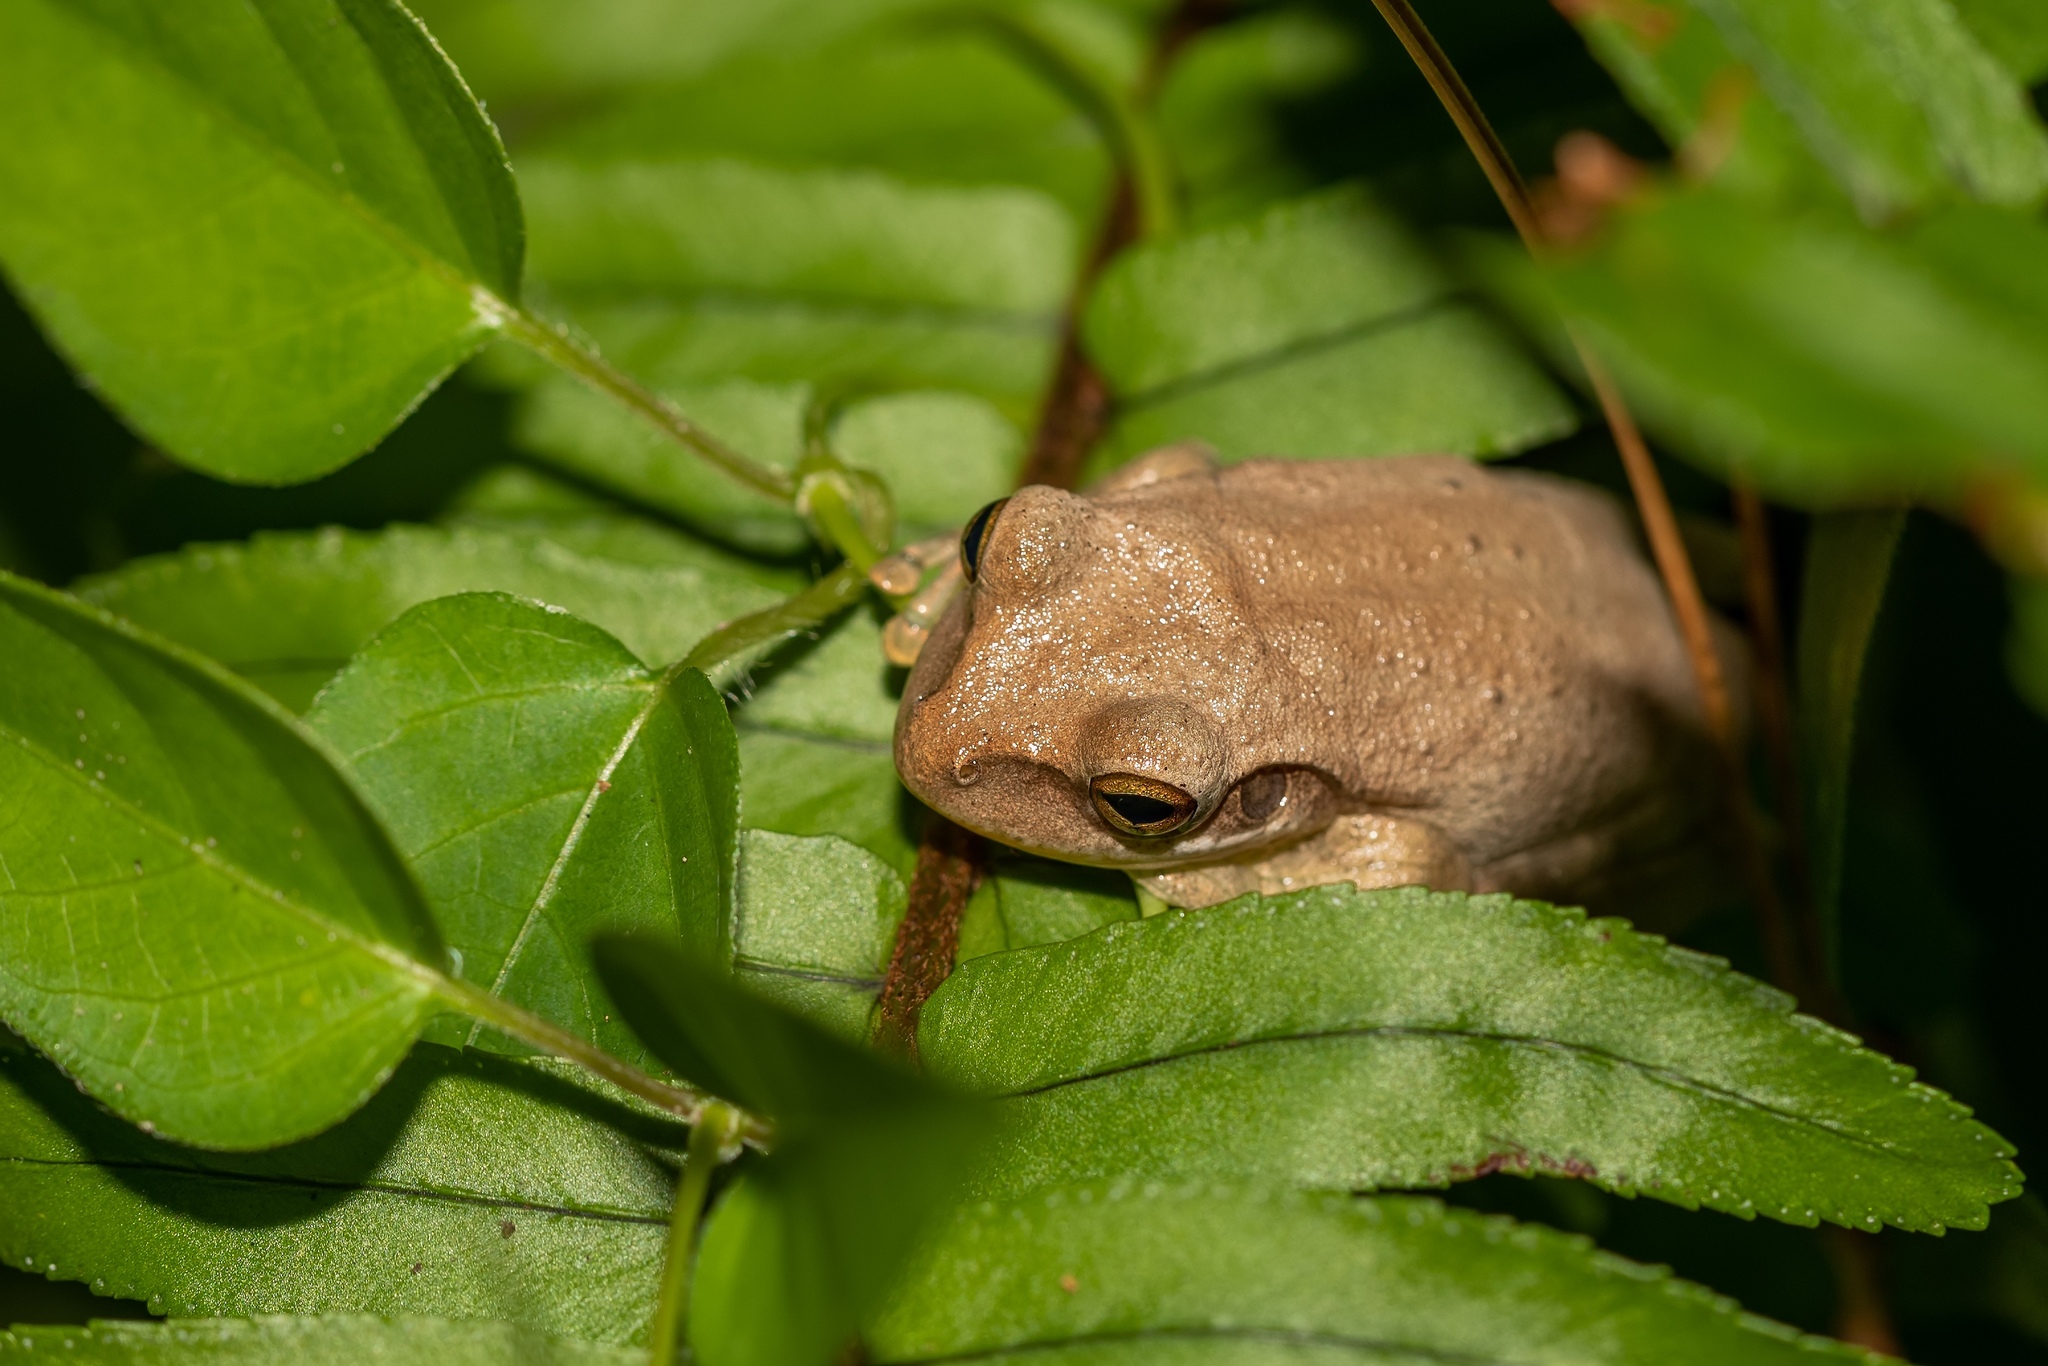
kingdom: Animalia
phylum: Chordata
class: Amphibia
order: Anura
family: Hylidae
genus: Osteopilus
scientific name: Osteopilus septentrionalis
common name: Cuban treefrog
